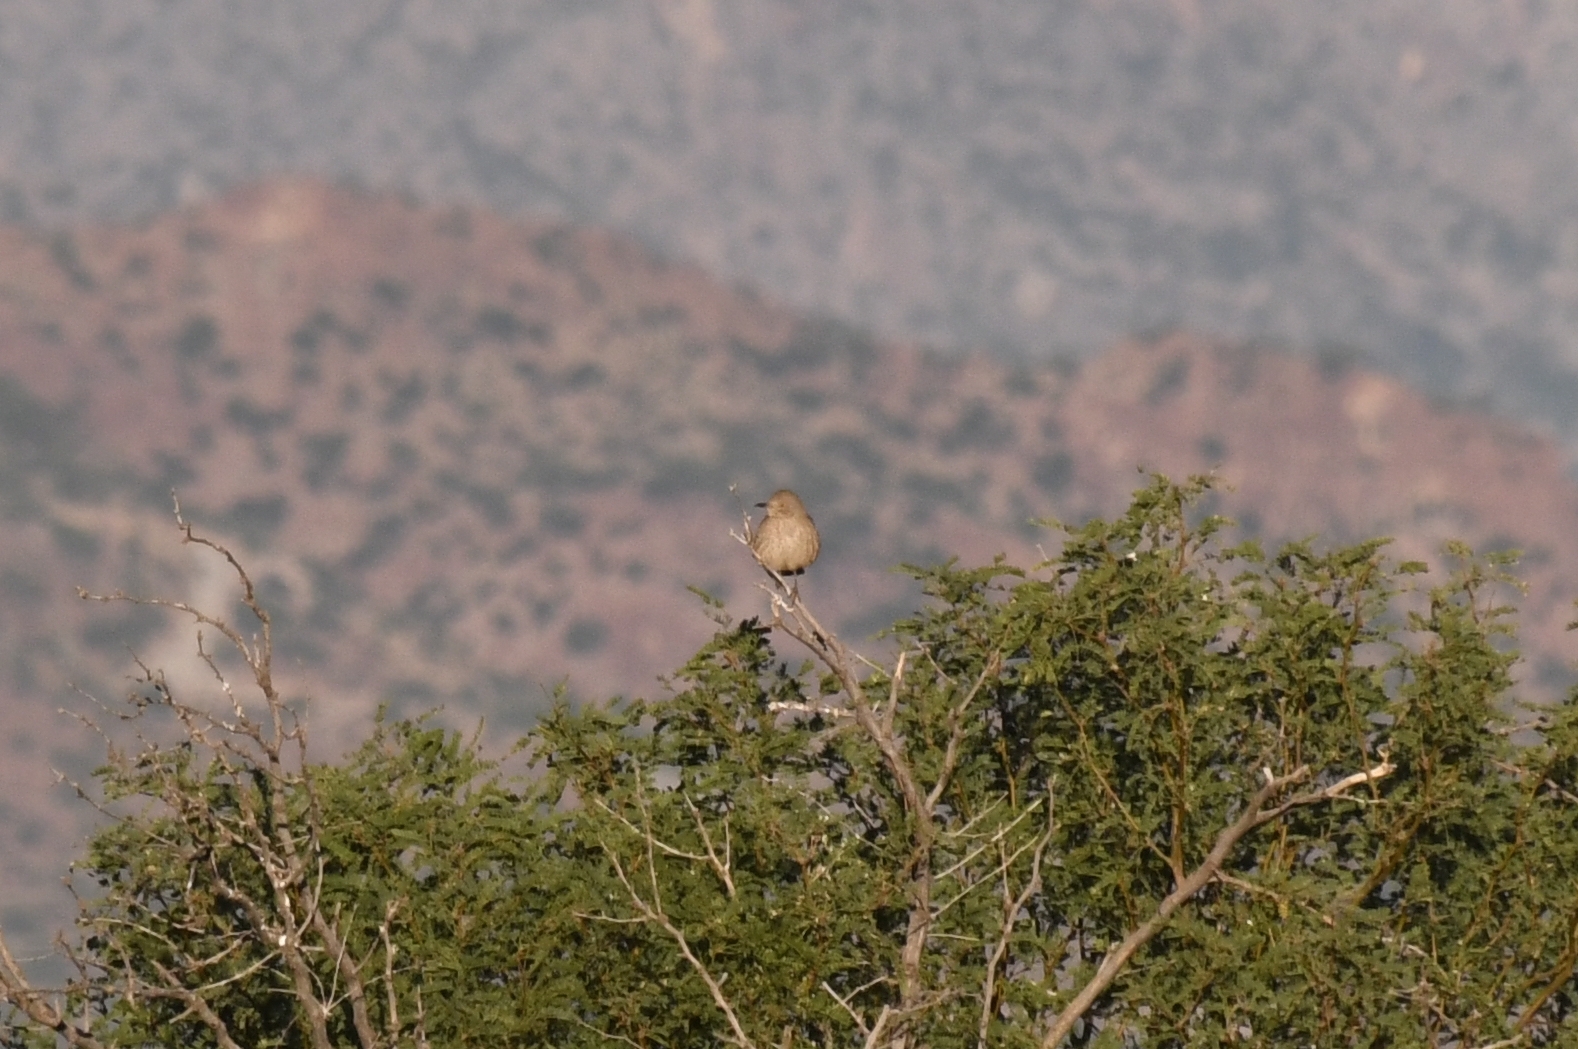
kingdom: Animalia
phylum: Chordata
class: Aves
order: Passeriformes
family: Mimidae
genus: Toxostoma
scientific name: Toxostoma bendirei
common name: Bendire's thrasher
